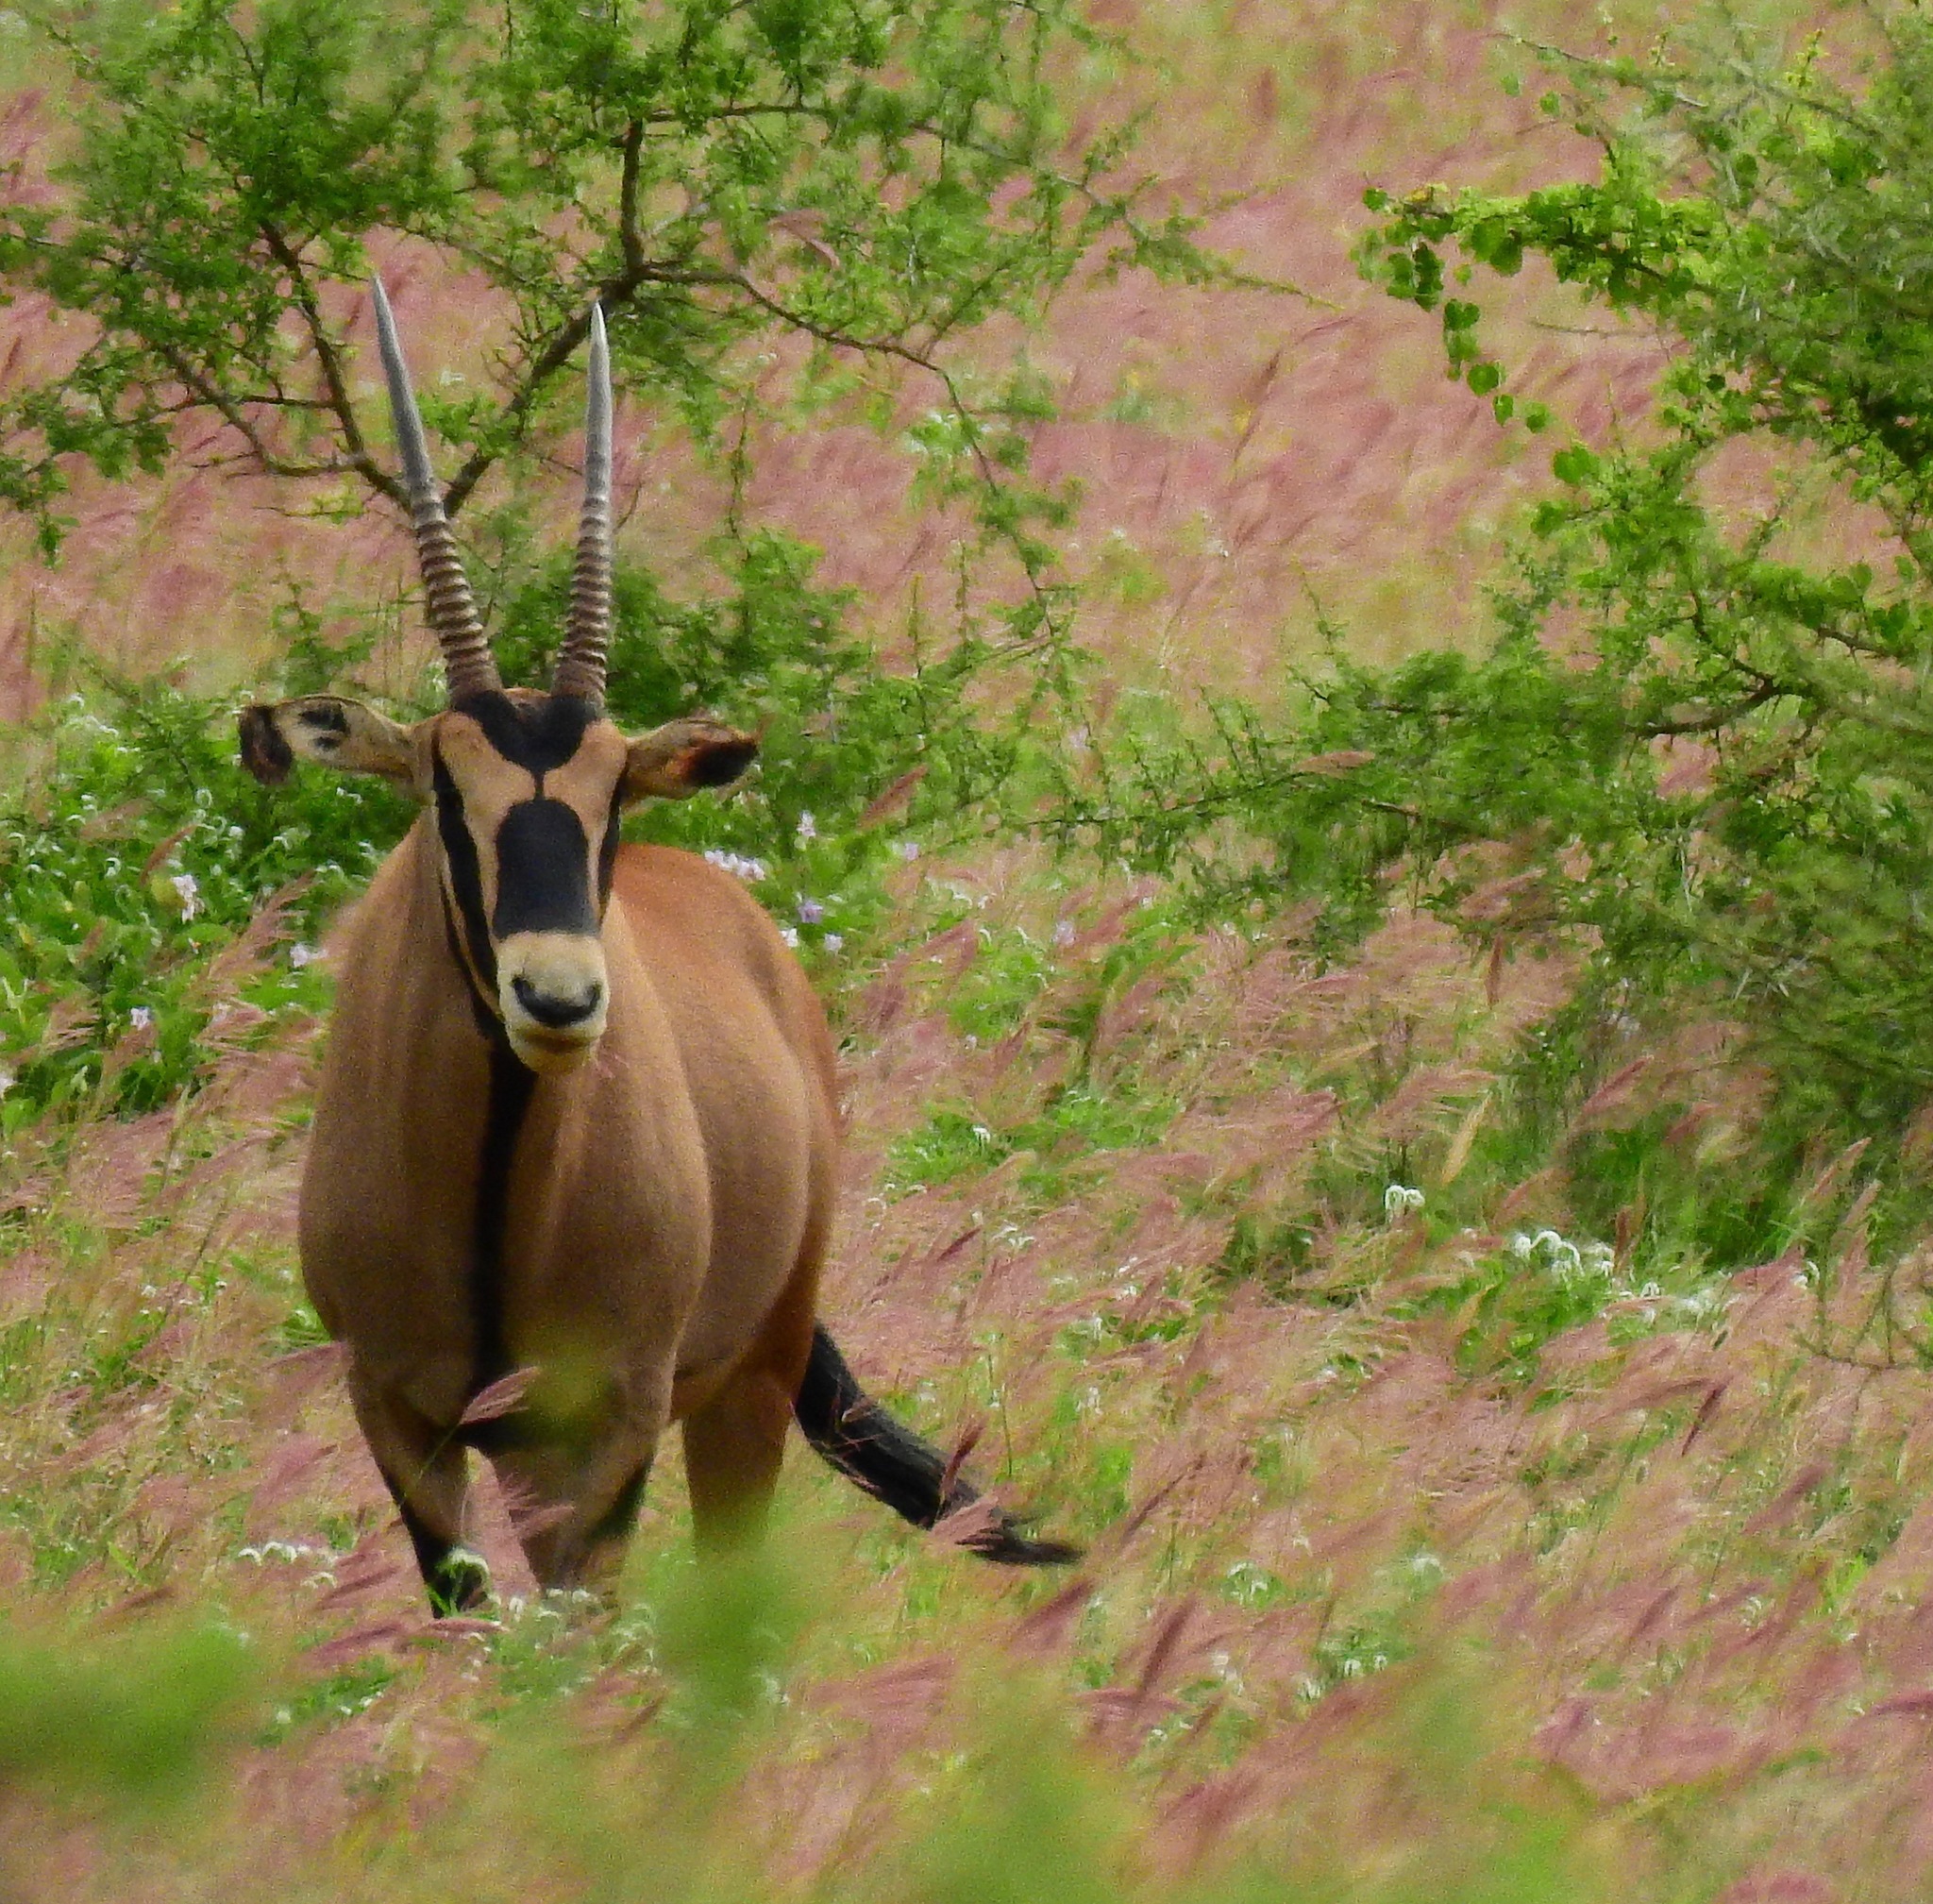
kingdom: Animalia
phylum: Chordata
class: Mammalia
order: Artiodactyla
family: Bovidae
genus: Oryx
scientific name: Oryx beisa
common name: Beisa
